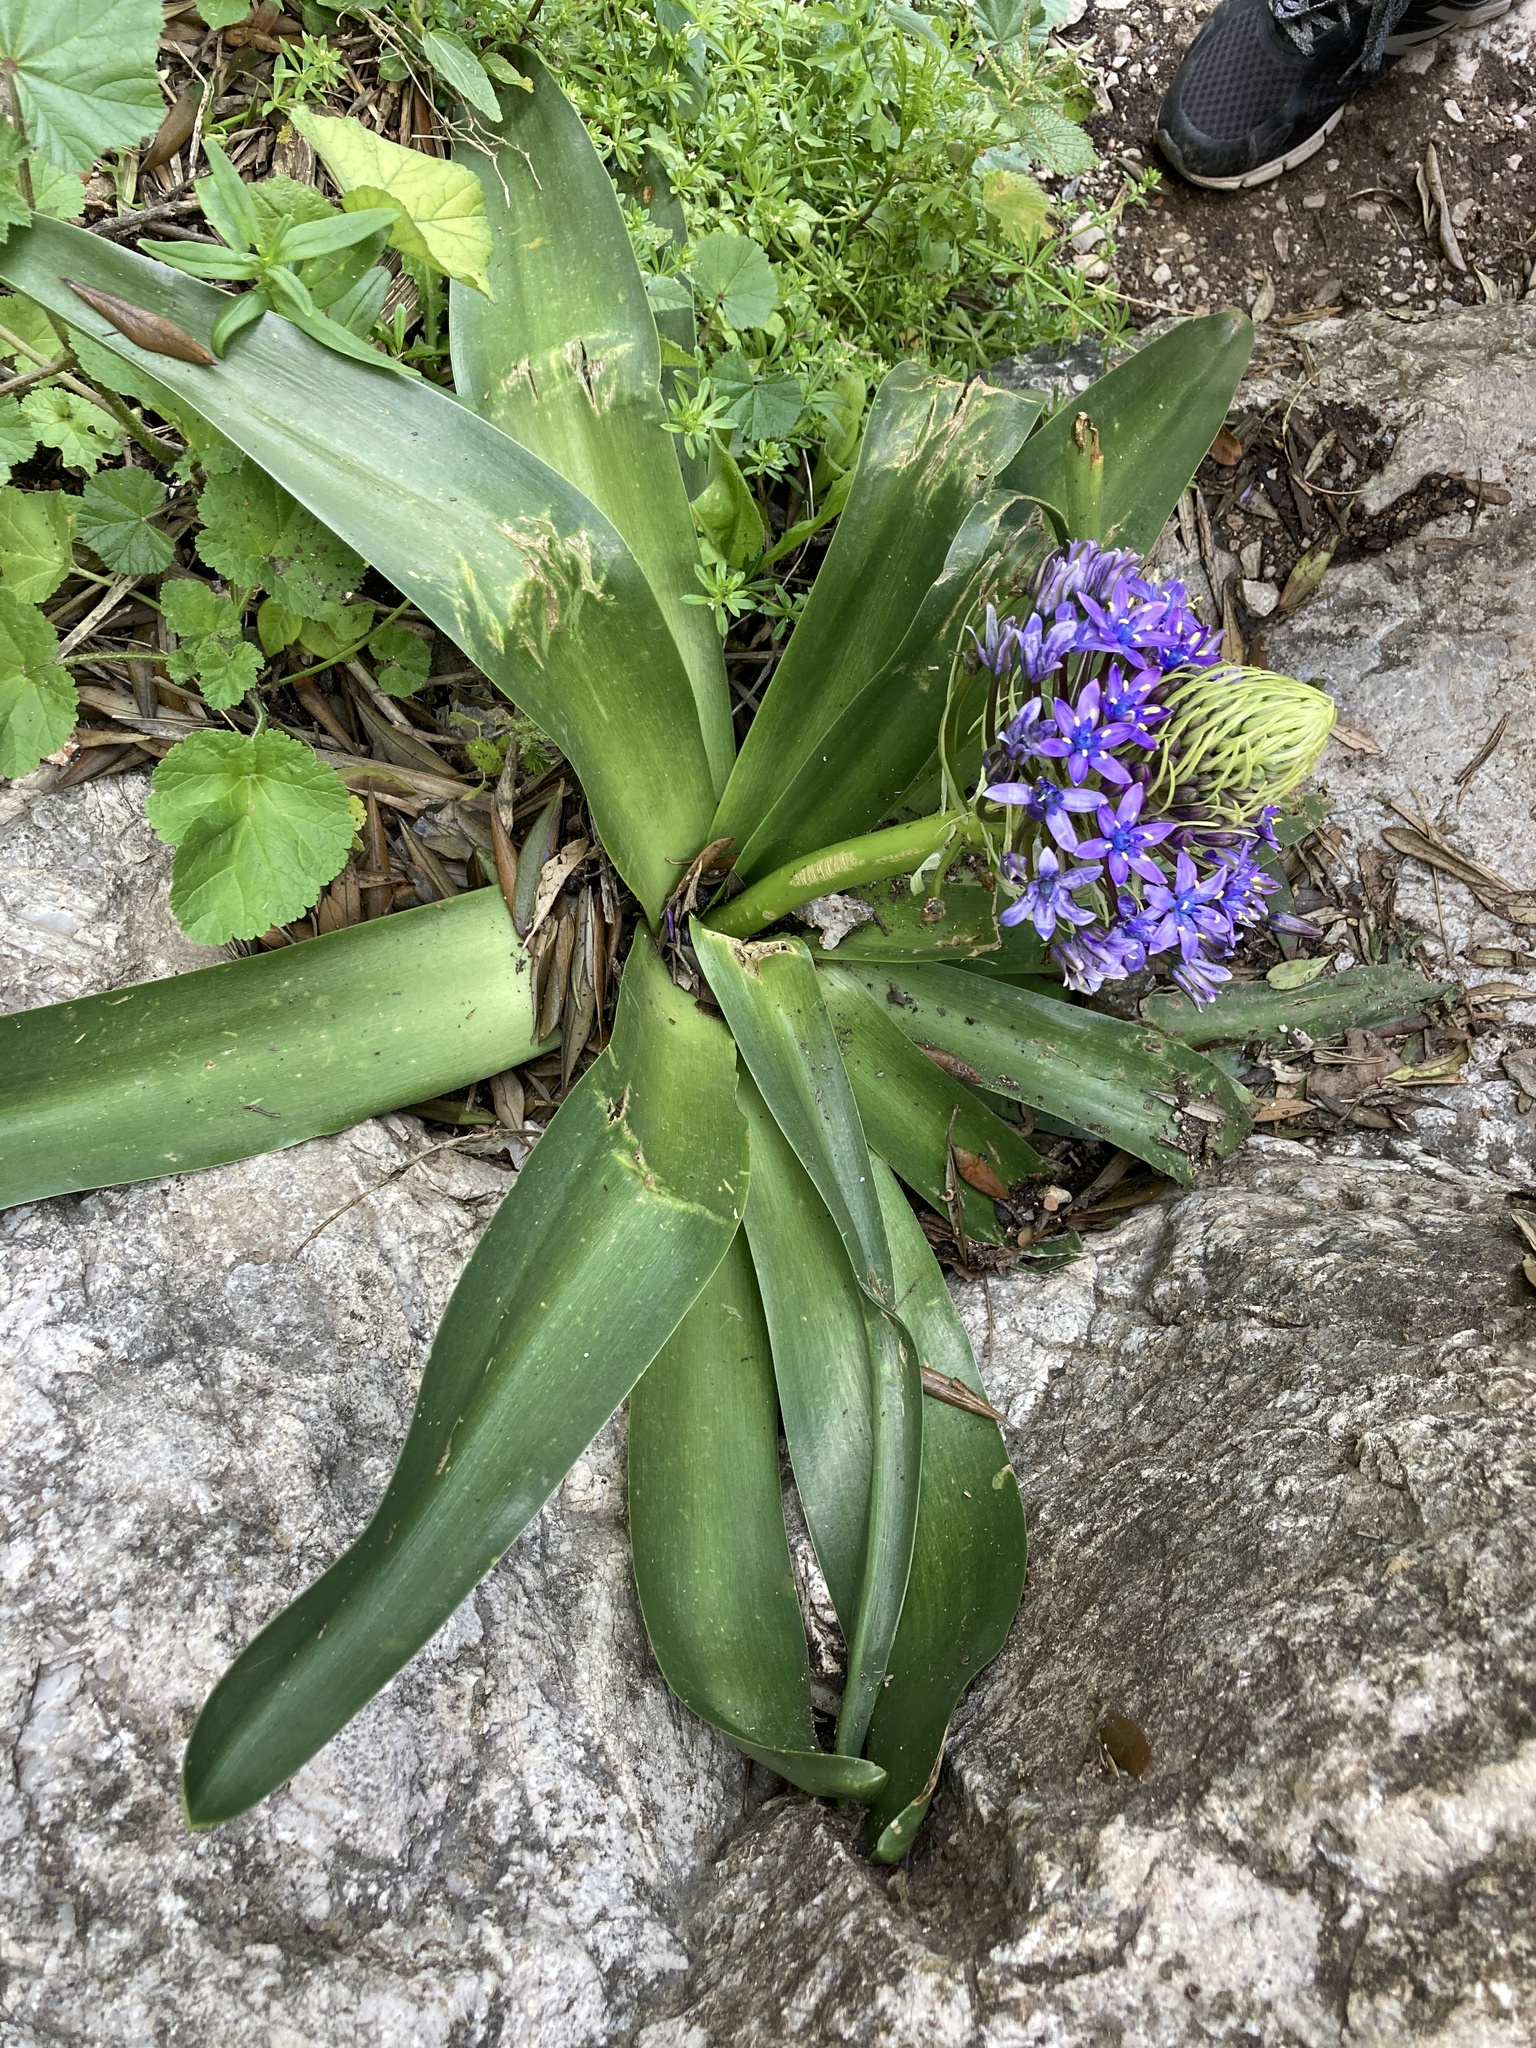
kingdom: Plantae
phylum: Tracheophyta
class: Liliopsida
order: Asparagales
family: Asparagaceae
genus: Scilla
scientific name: Scilla peruviana
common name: Portuguese squill
